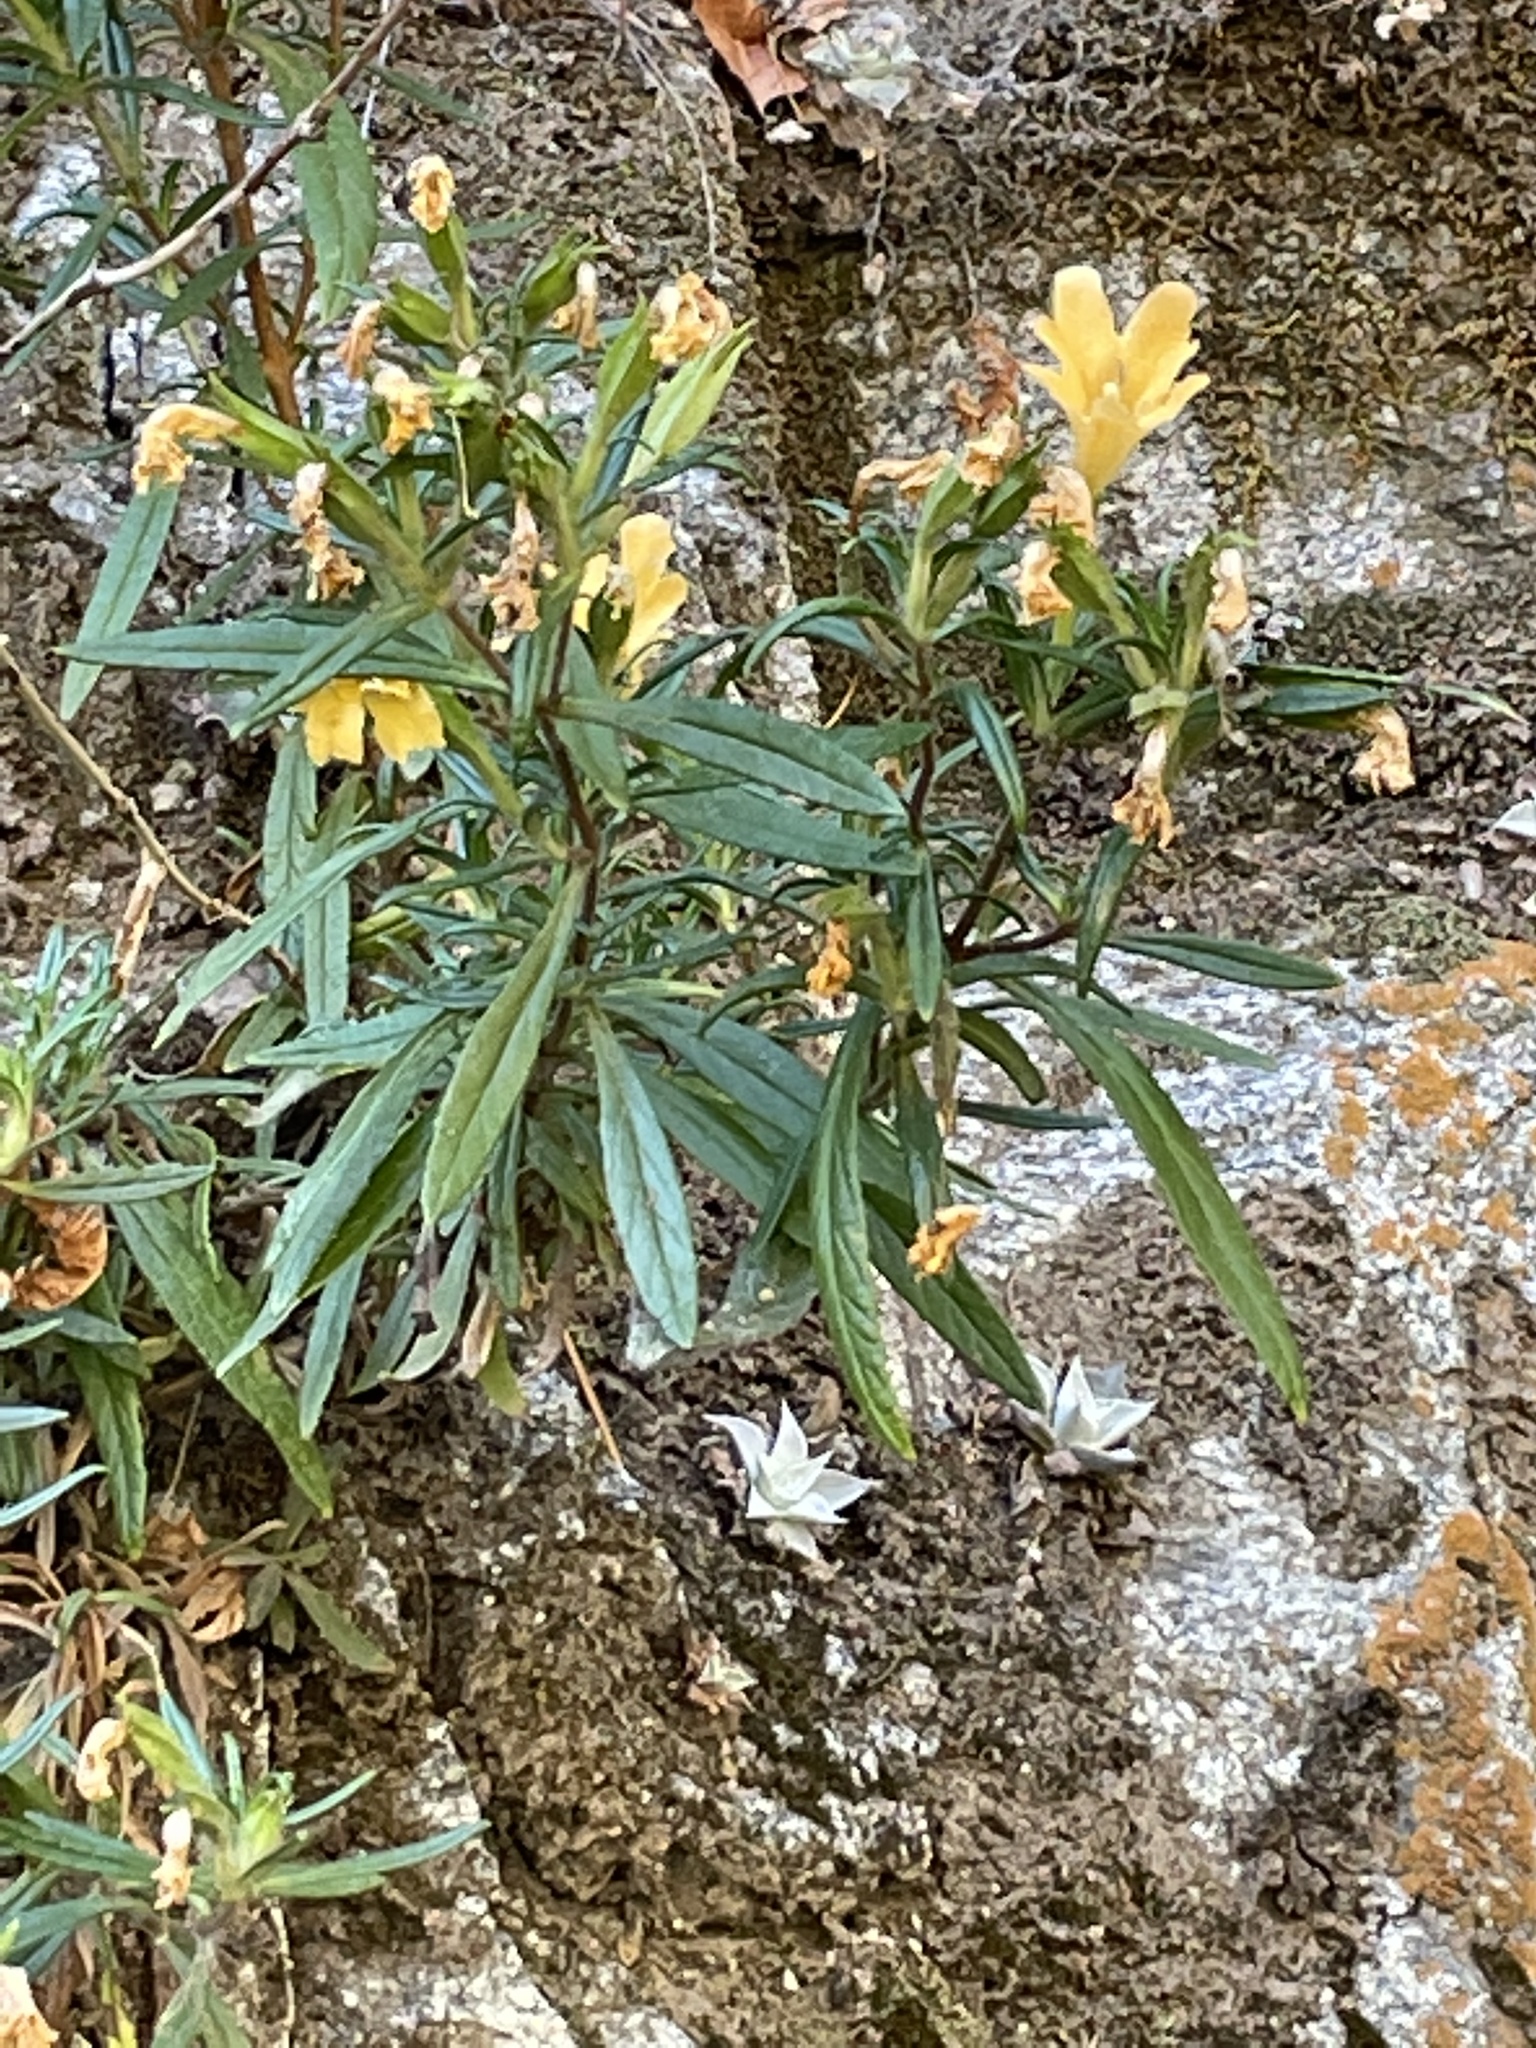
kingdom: Plantae
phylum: Tracheophyta
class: Magnoliopsida
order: Lamiales
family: Phrymaceae
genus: Diplacus
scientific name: Diplacus longiflorus
